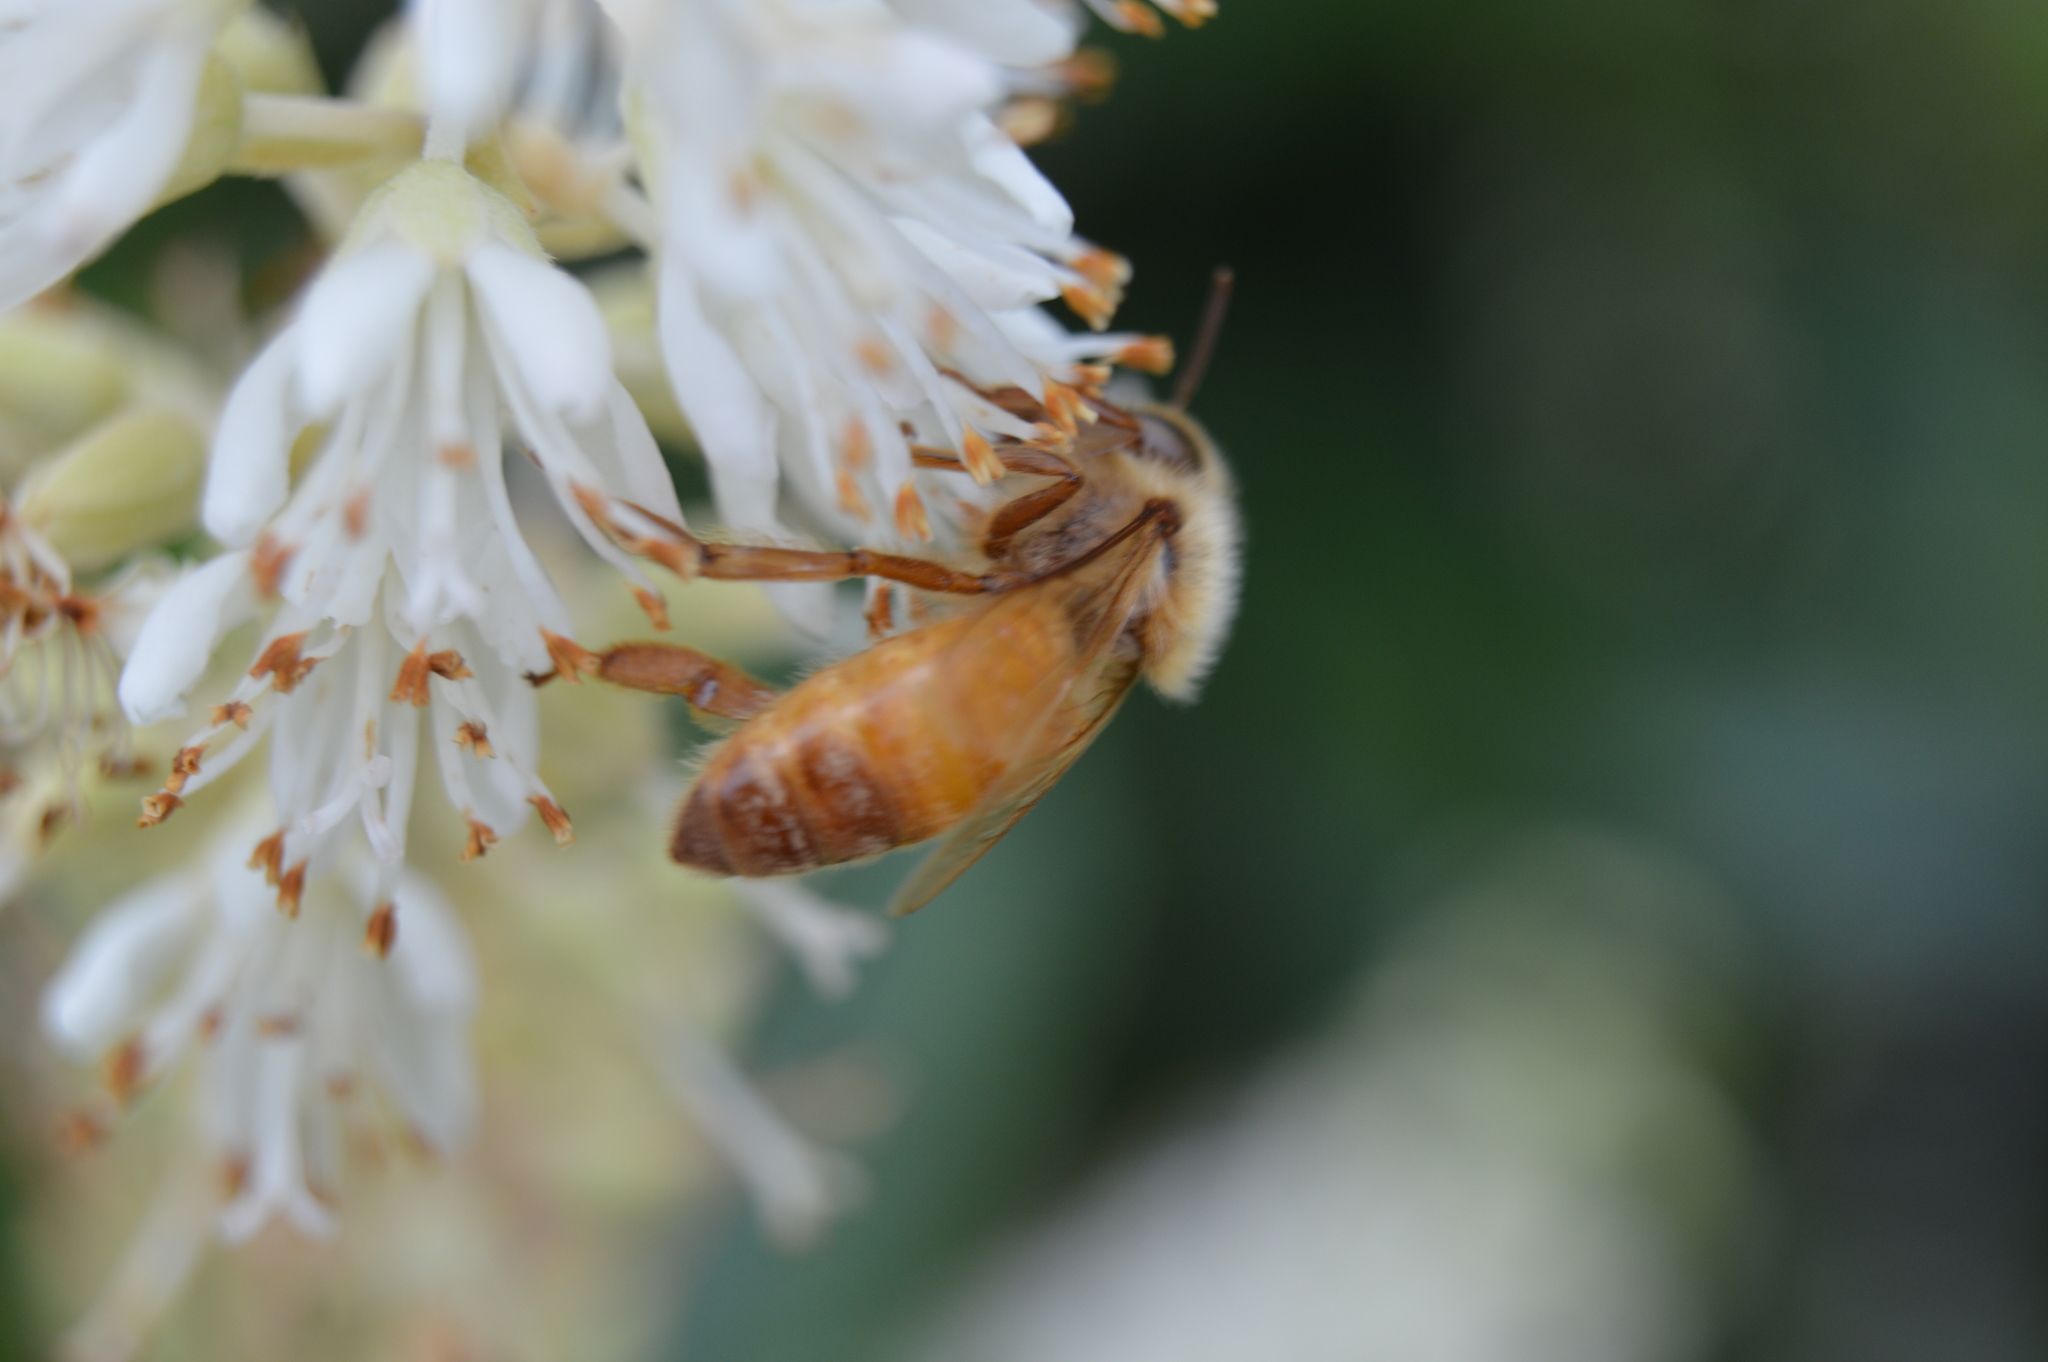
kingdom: Animalia
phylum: Arthropoda
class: Insecta
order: Hymenoptera
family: Apidae
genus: Apis
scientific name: Apis mellifera
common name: Honey bee
